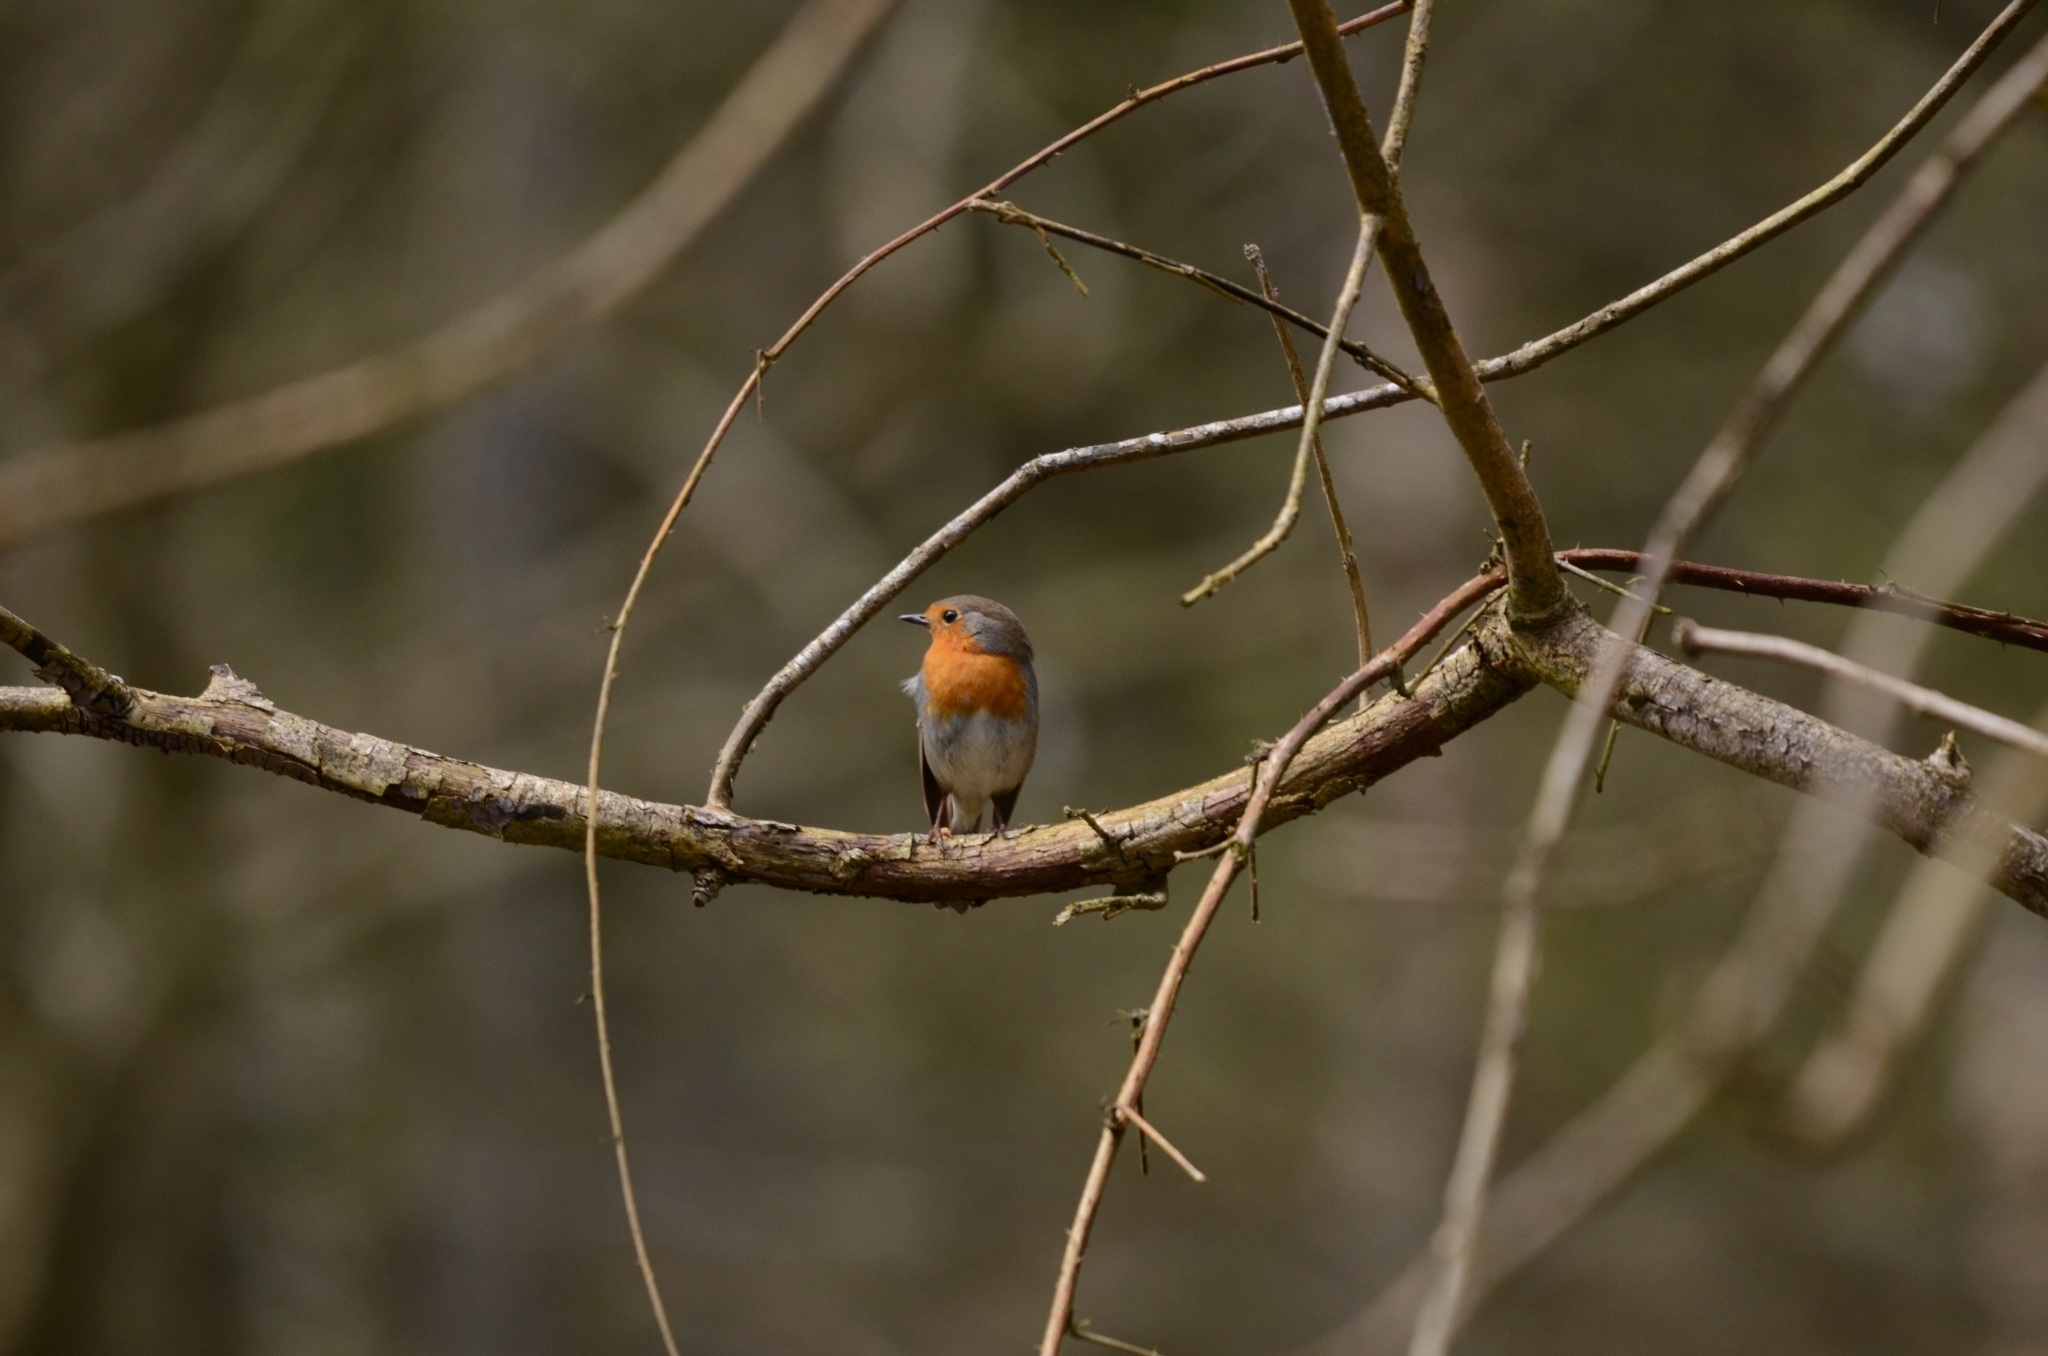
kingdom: Animalia
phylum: Chordata
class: Aves
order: Passeriformes
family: Muscicapidae
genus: Erithacus
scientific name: Erithacus rubecula
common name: European robin
